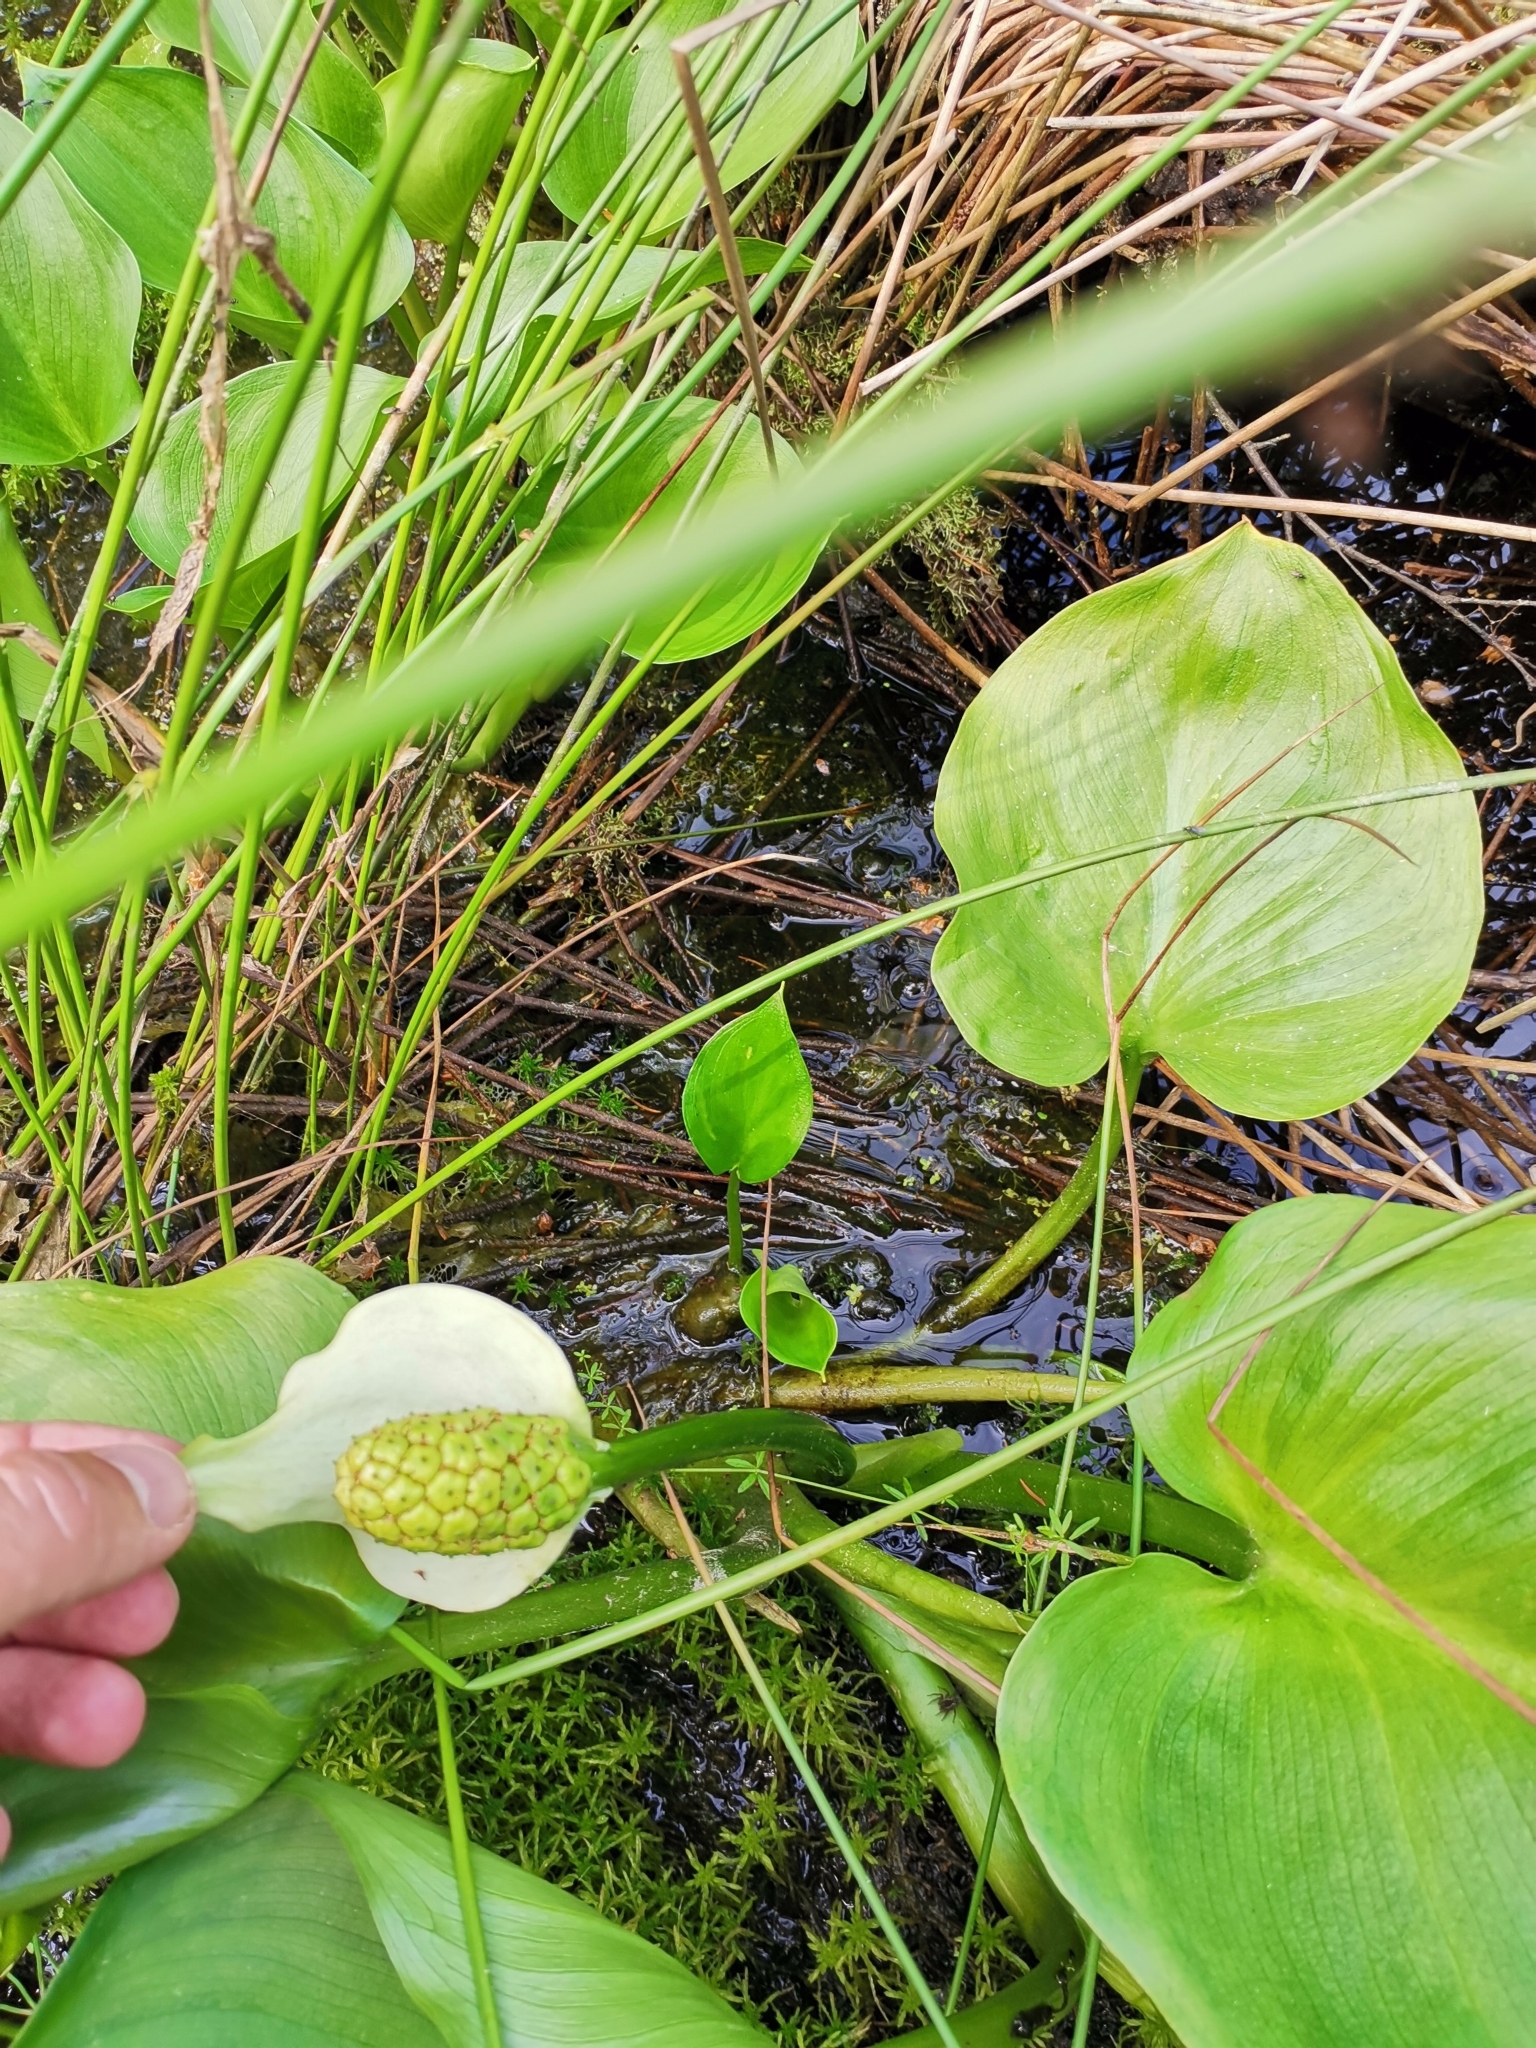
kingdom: Plantae
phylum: Tracheophyta
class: Liliopsida
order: Alismatales
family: Araceae
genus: Calla
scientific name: Calla palustris
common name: Bog arum
